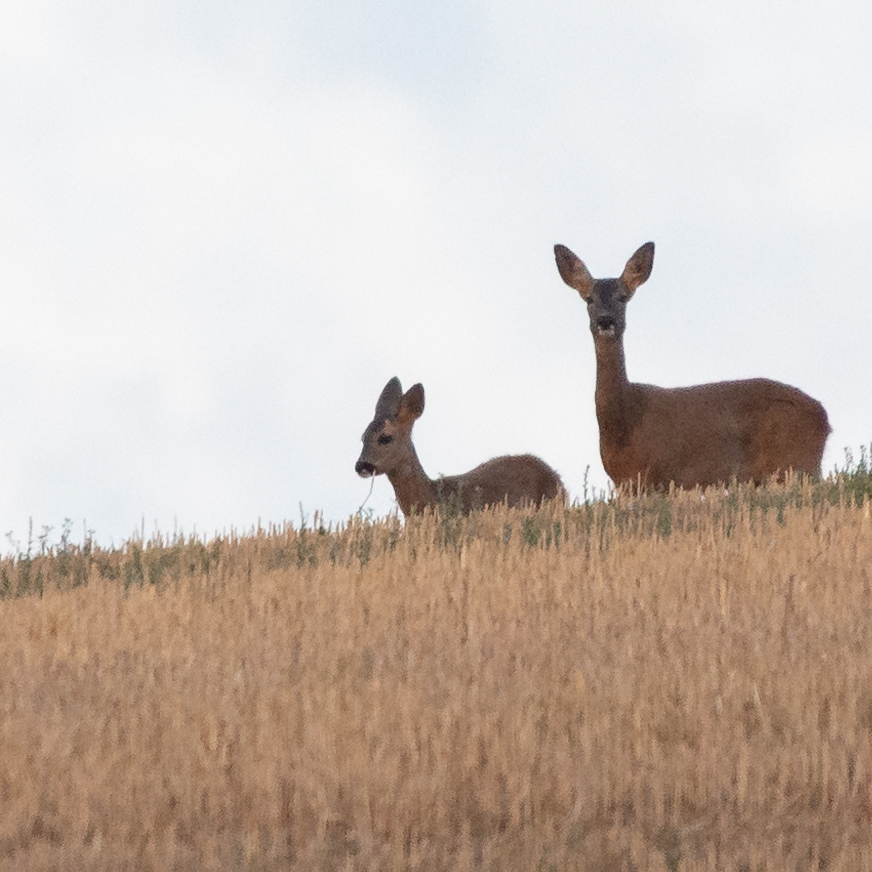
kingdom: Animalia
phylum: Chordata
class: Mammalia
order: Artiodactyla
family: Cervidae
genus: Capreolus
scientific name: Capreolus capreolus
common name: Western roe deer
